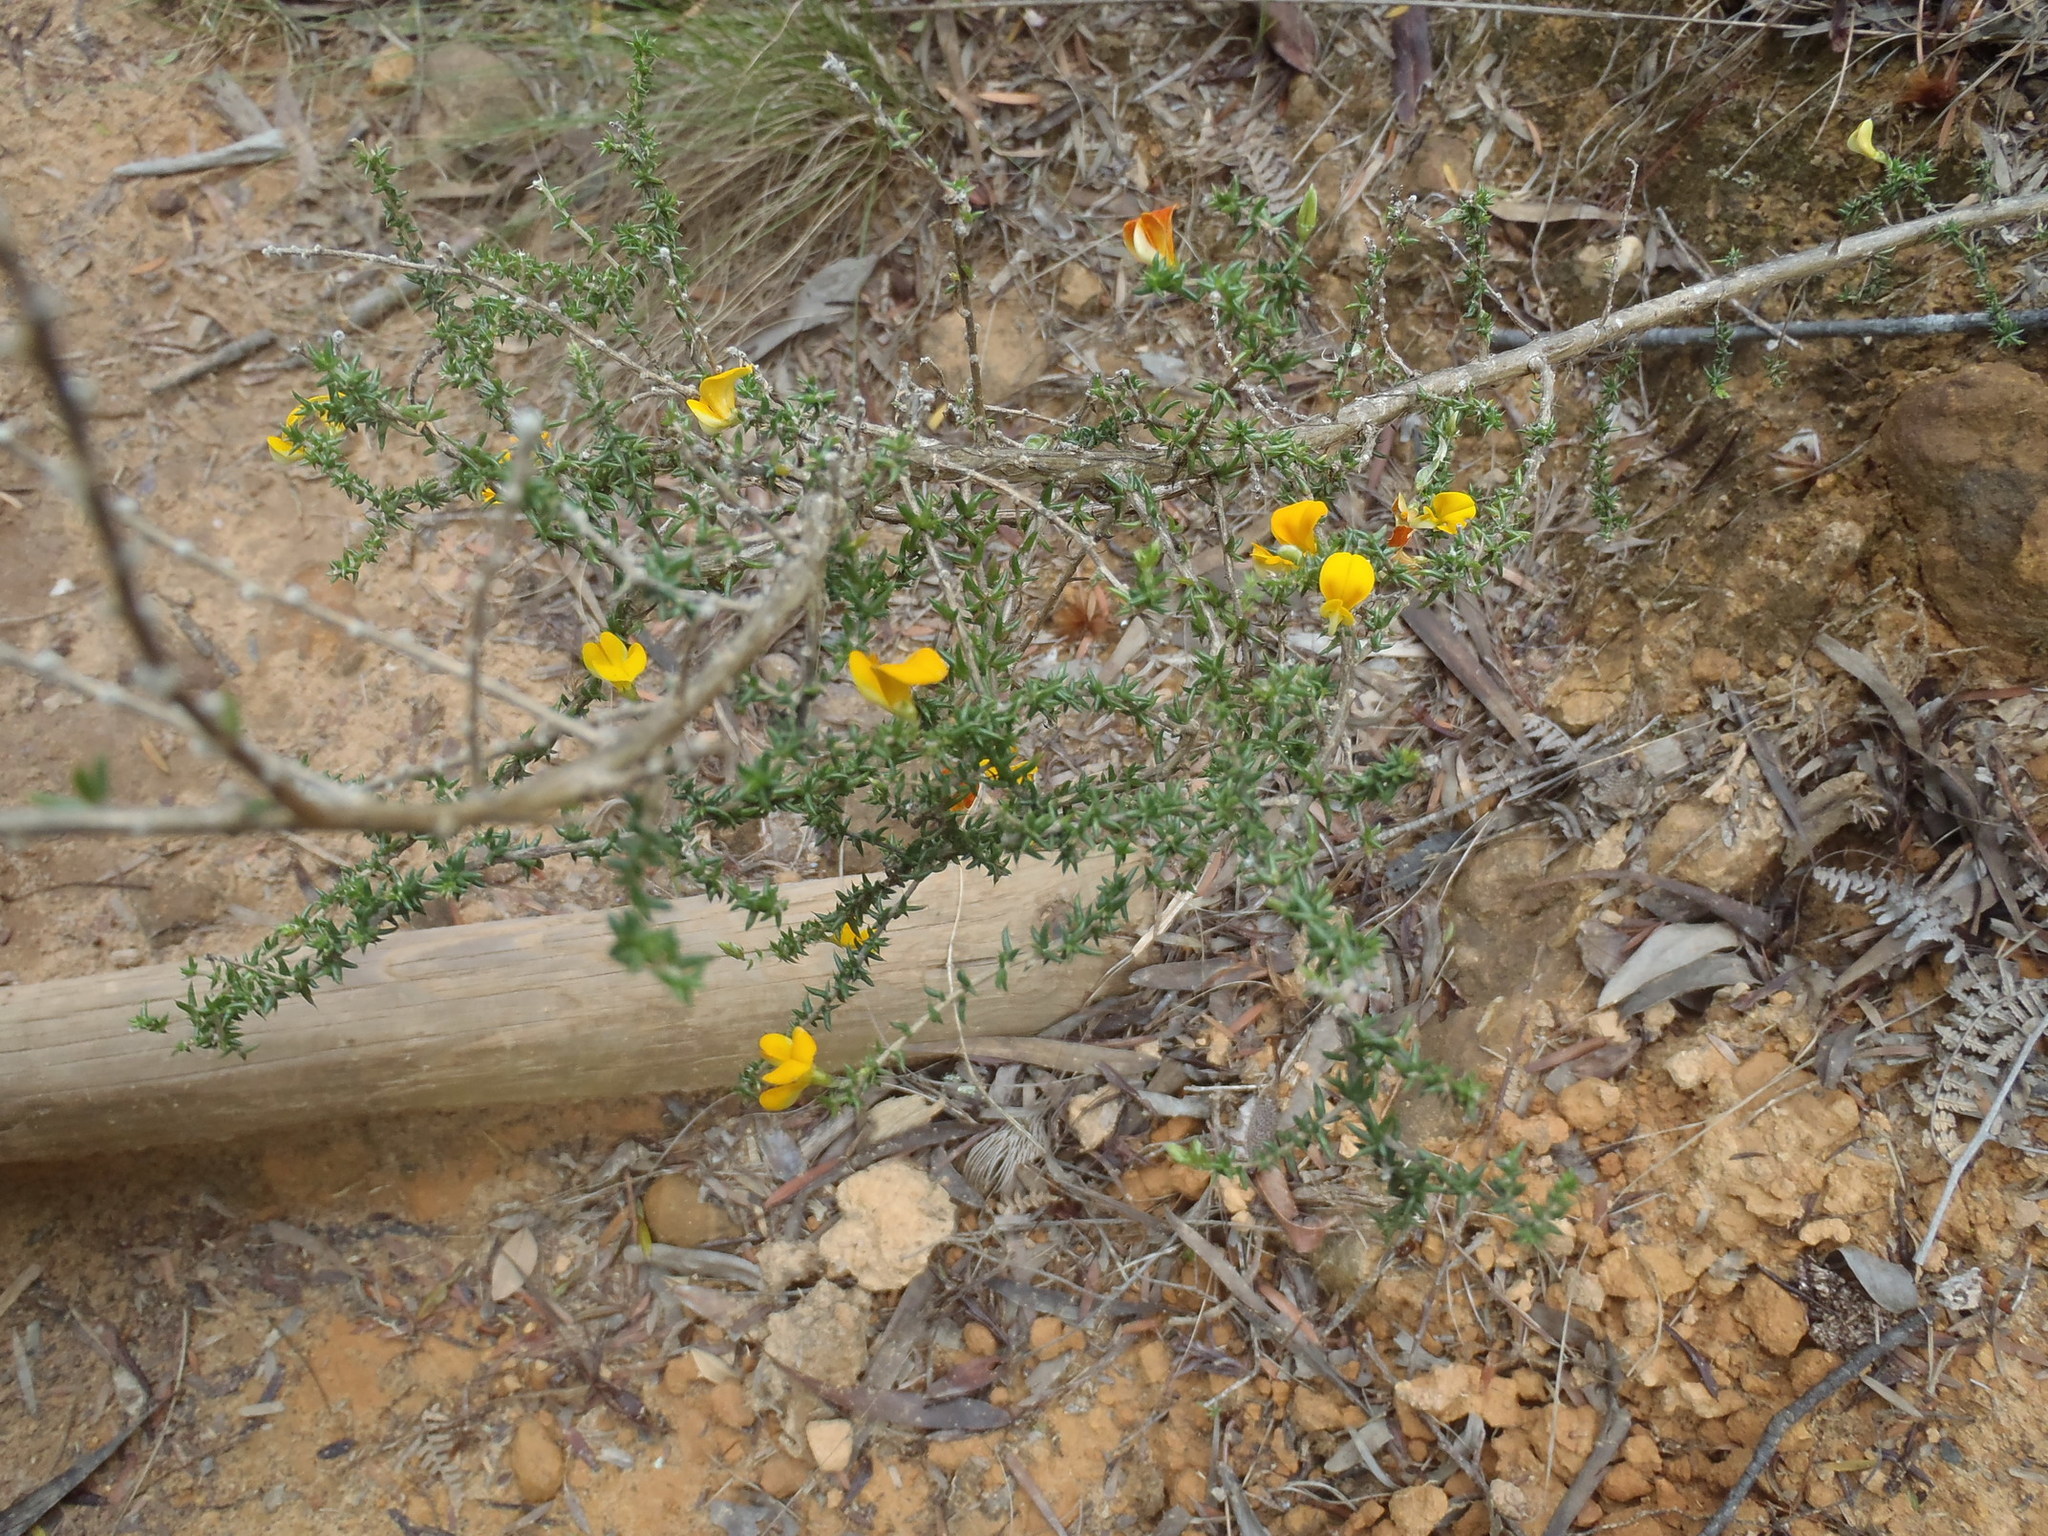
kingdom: Plantae
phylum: Tracheophyta
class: Magnoliopsida
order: Fabales
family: Fabaceae
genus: Aspalathus
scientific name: Aspalathus divaricata
